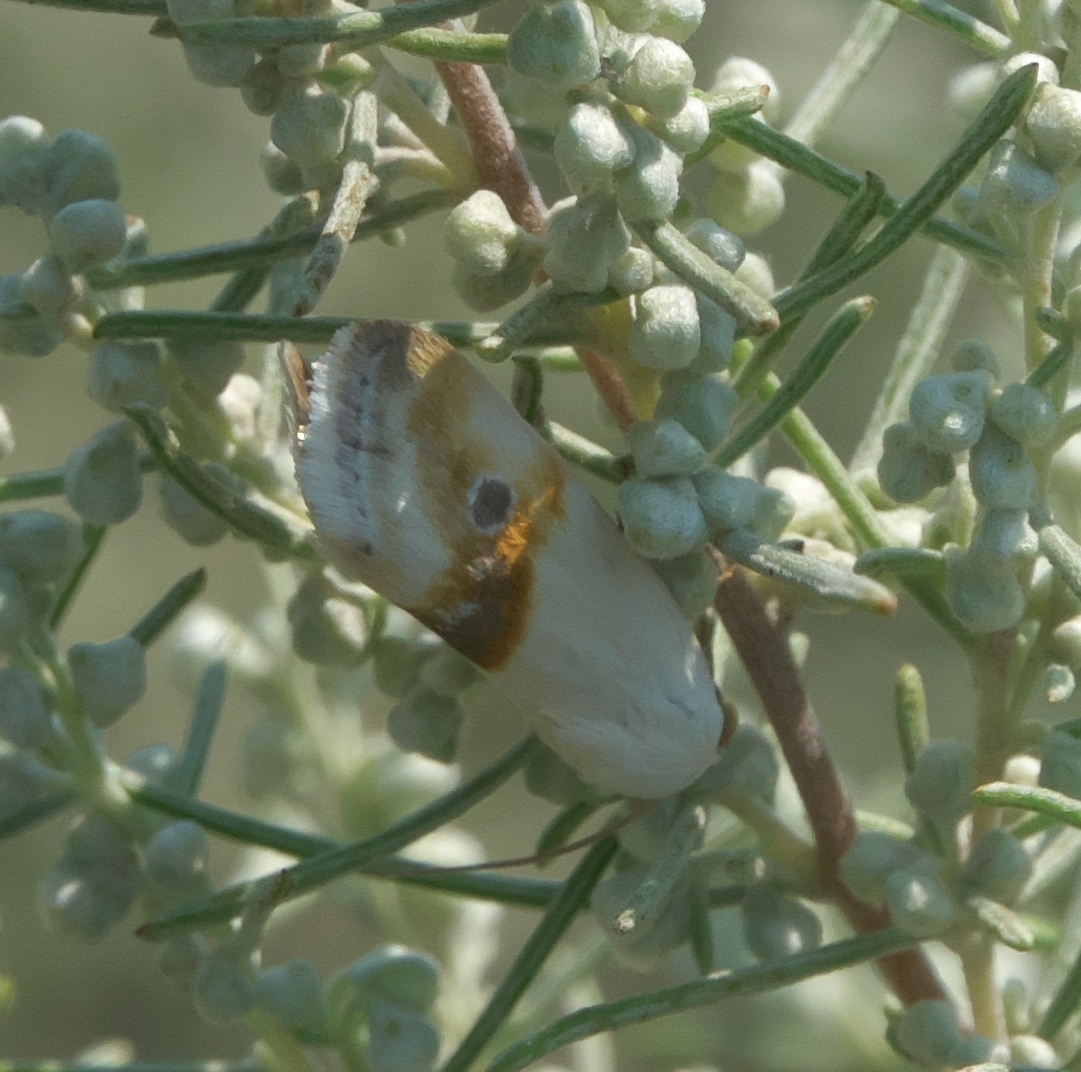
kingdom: Animalia
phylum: Arthropoda
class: Insecta
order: Lepidoptera
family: Noctuidae
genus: Acontia
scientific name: Acontia binocula
